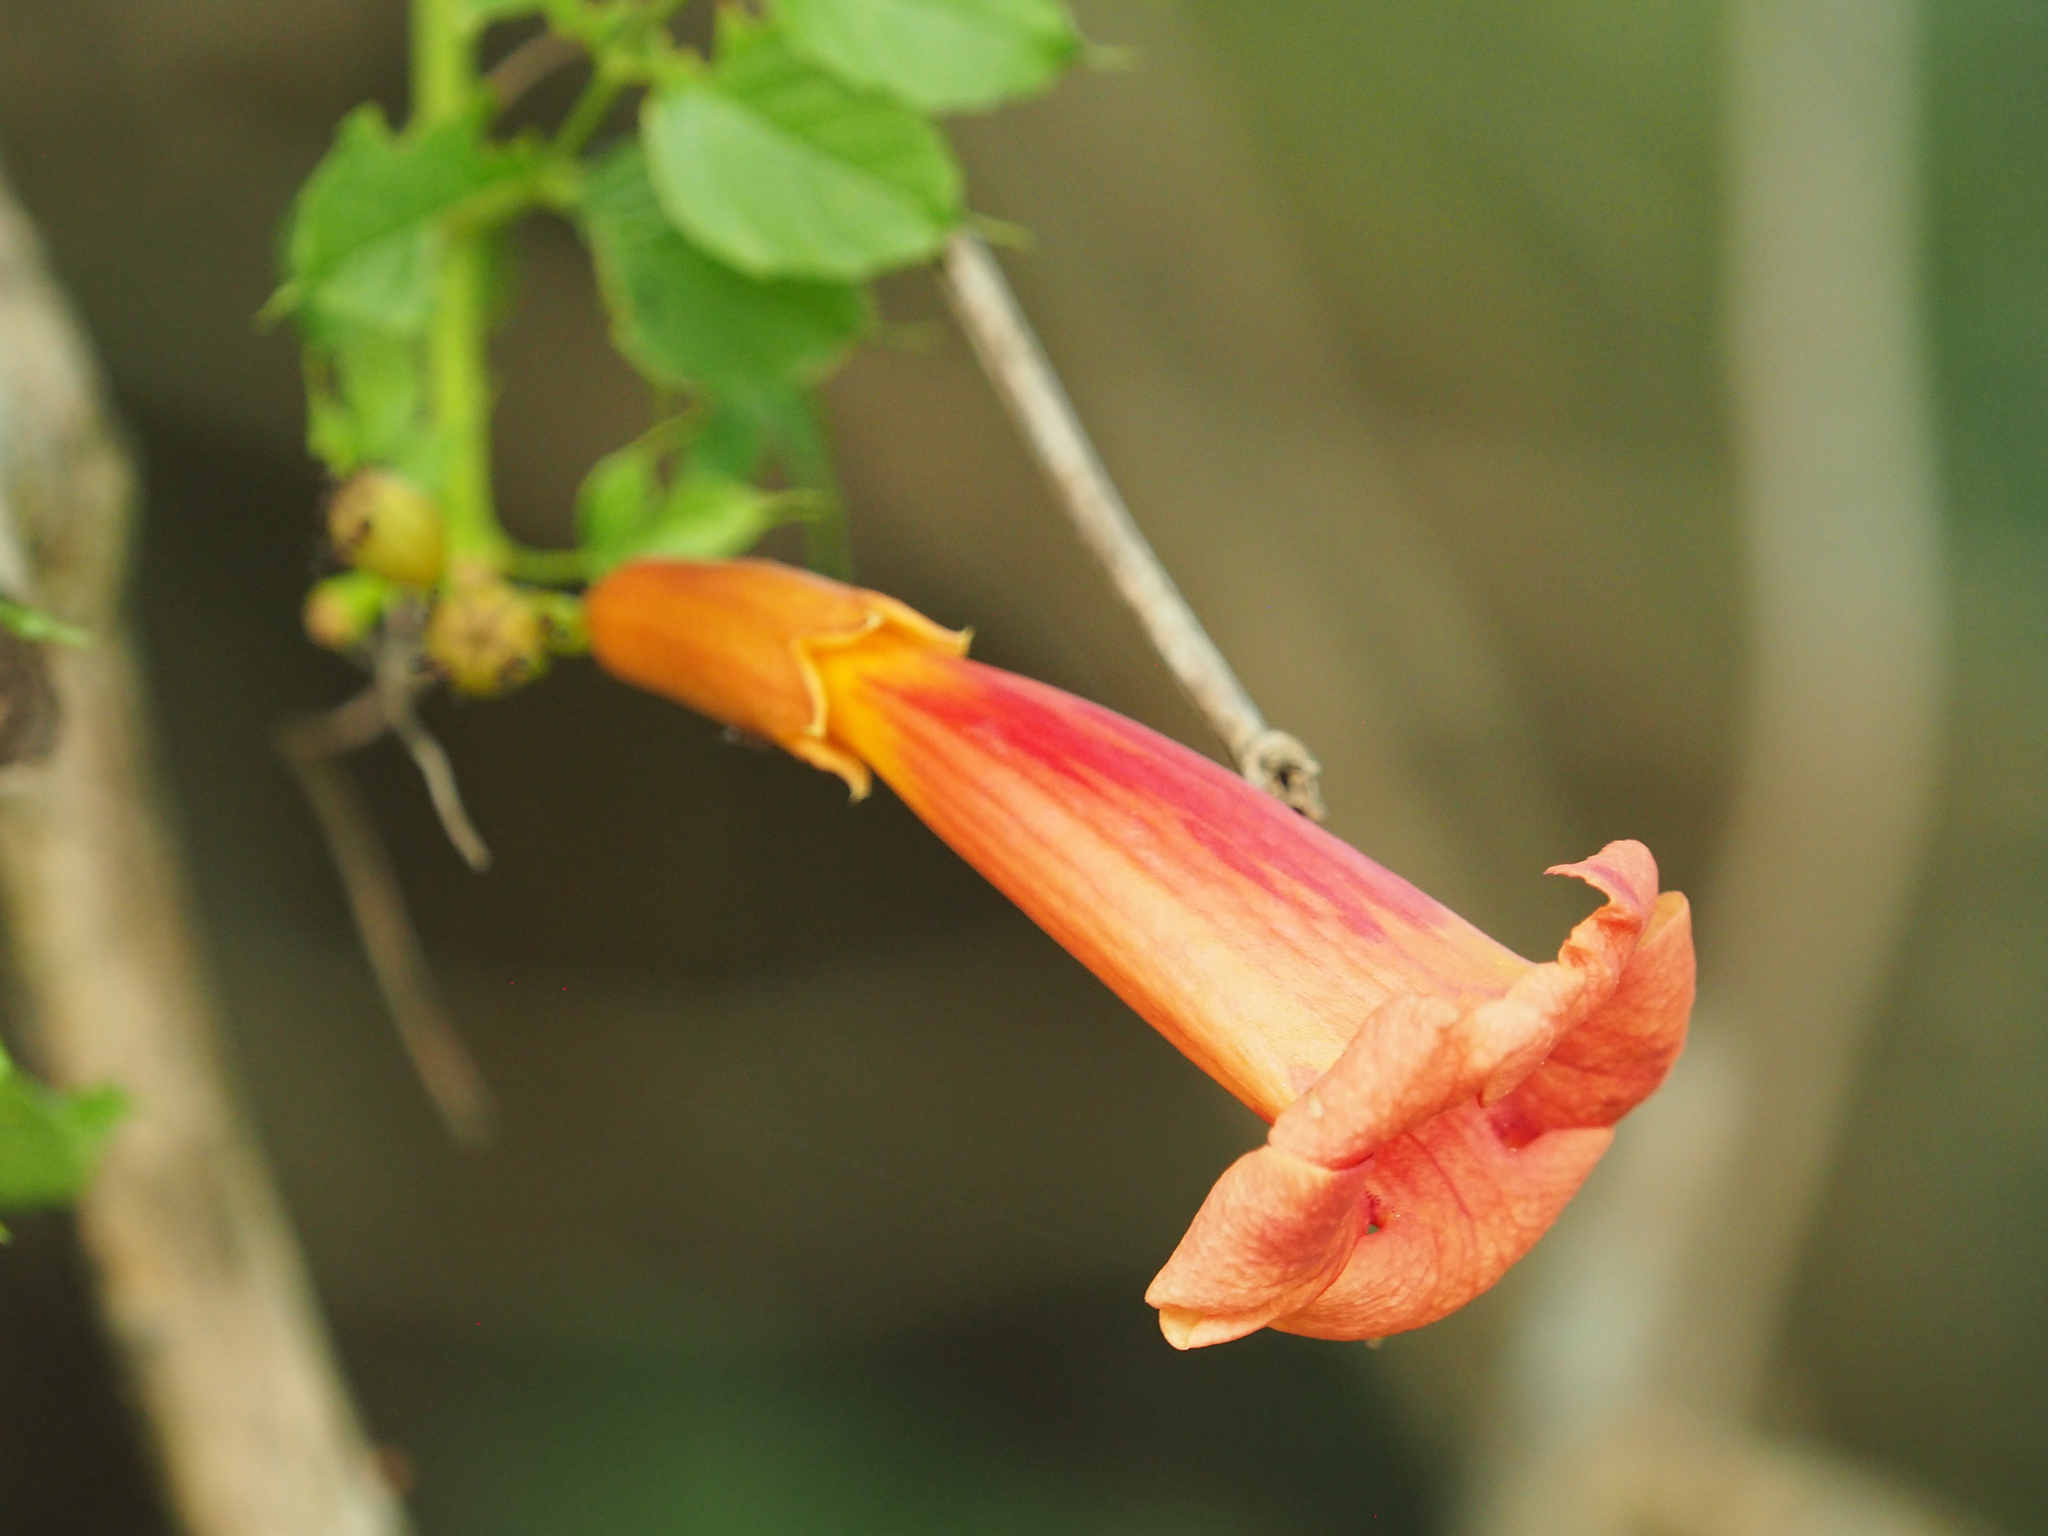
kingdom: Plantae
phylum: Tracheophyta
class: Magnoliopsida
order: Lamiales
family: Bignoniaceae
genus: Campsis
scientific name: Campsis radicans
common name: Trumpet-creeper
